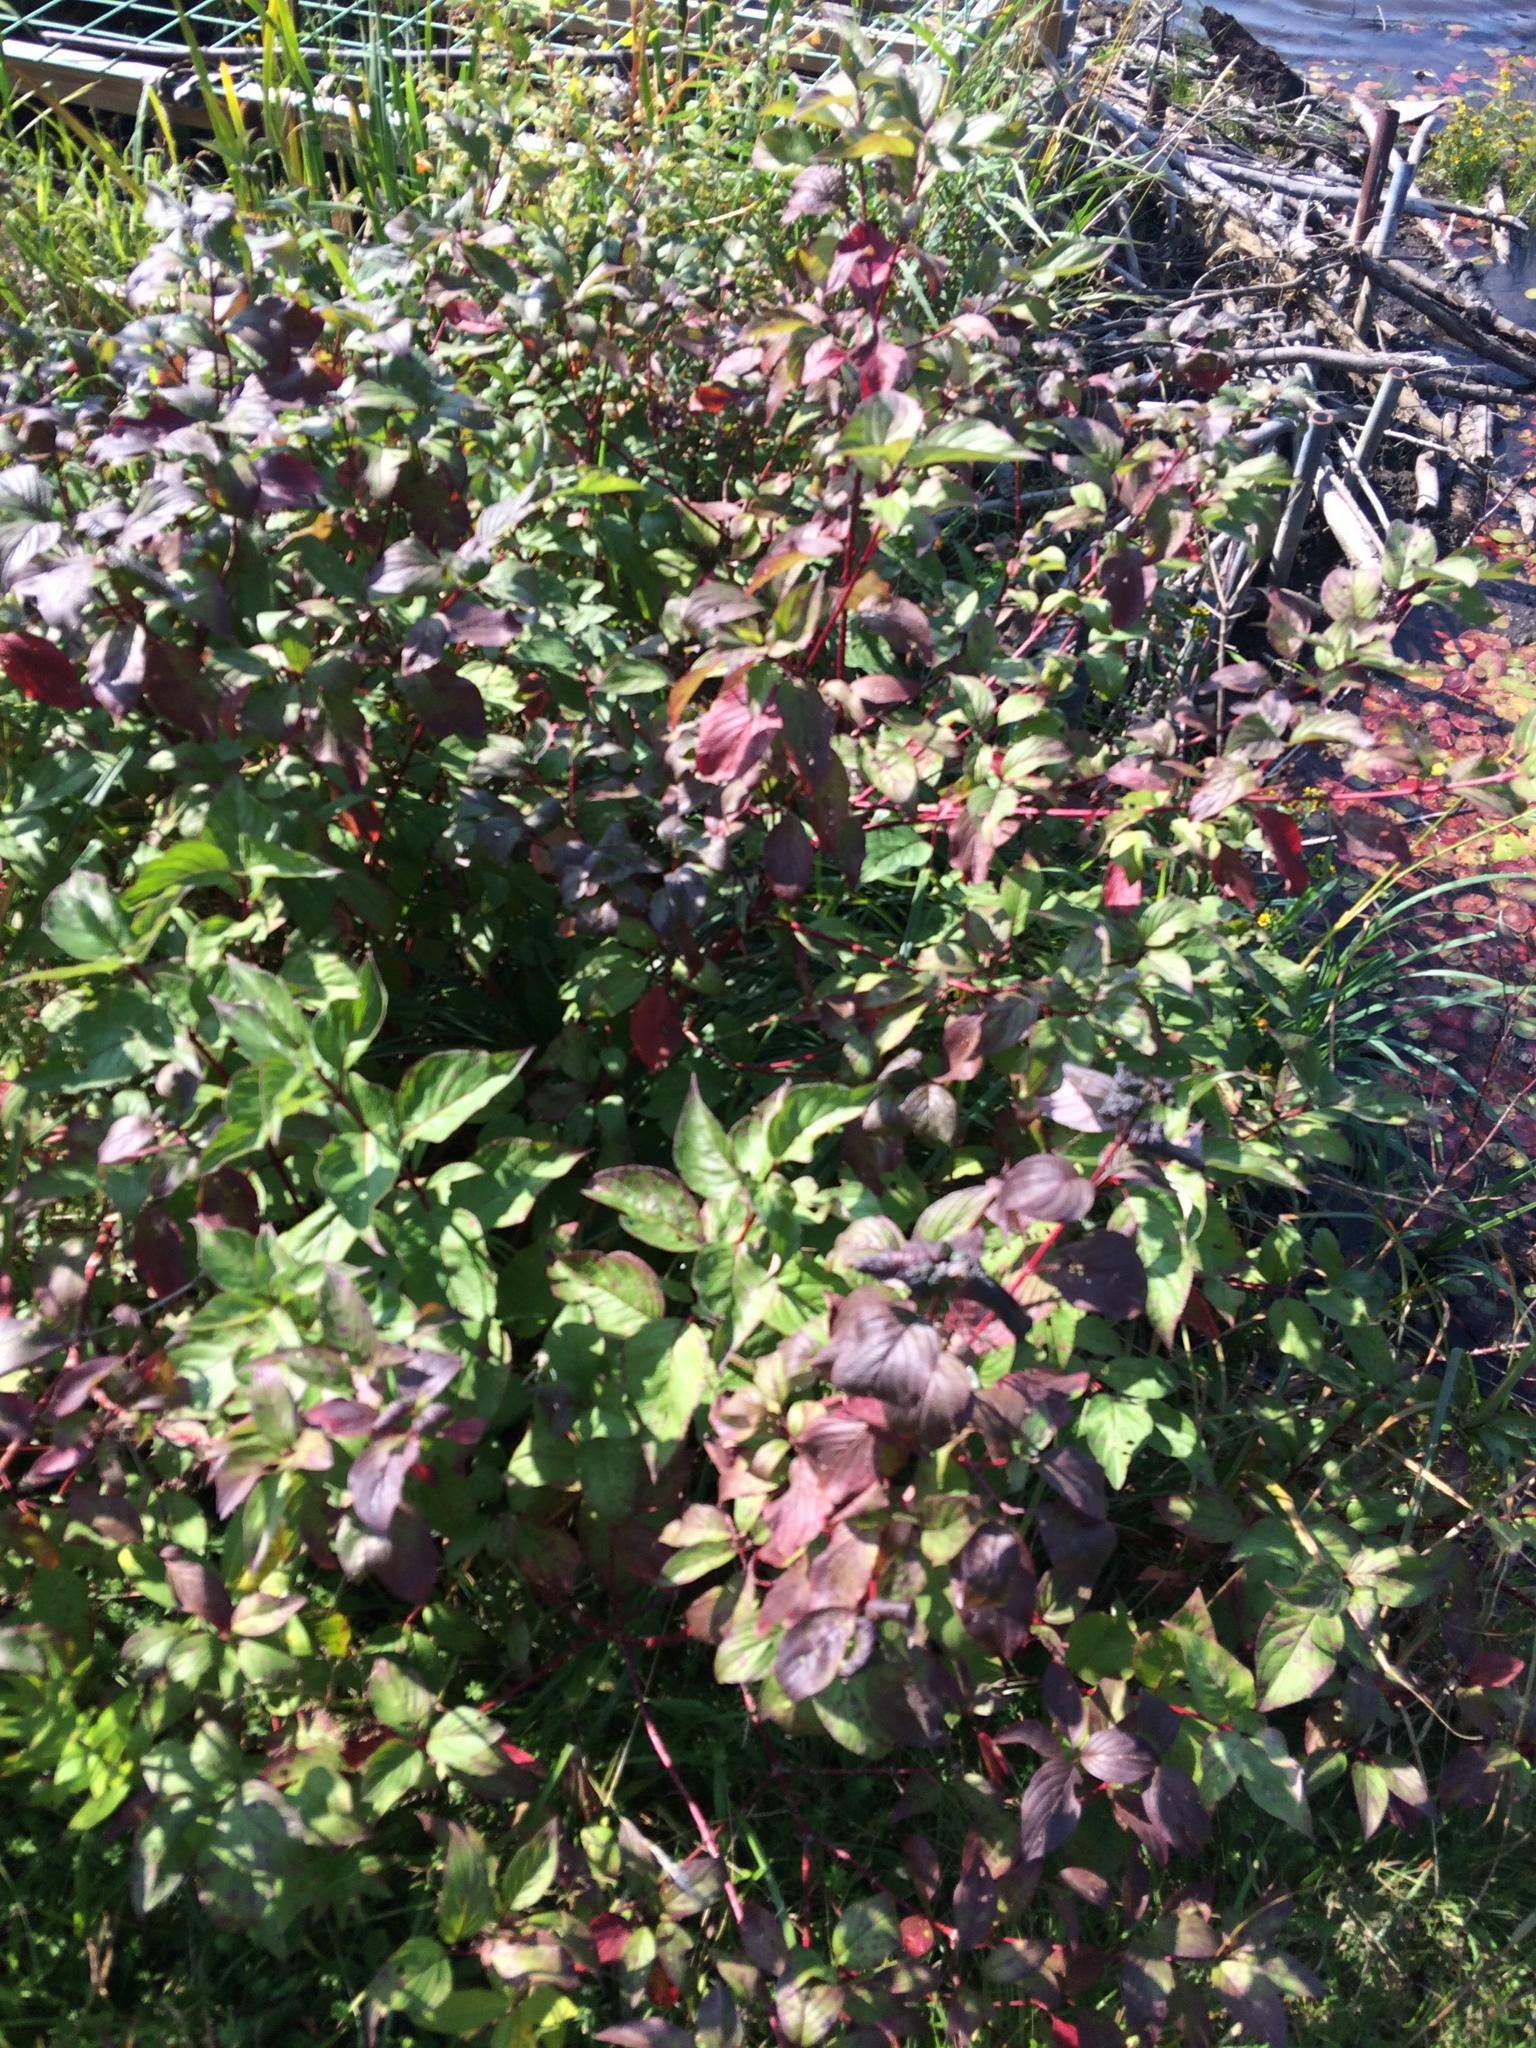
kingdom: Plantae
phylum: Tracheophyta
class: Magnoliopsida
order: Cornales
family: Cornaceae
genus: Cornus
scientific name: Cornus sericea
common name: Red-osier dogwood
